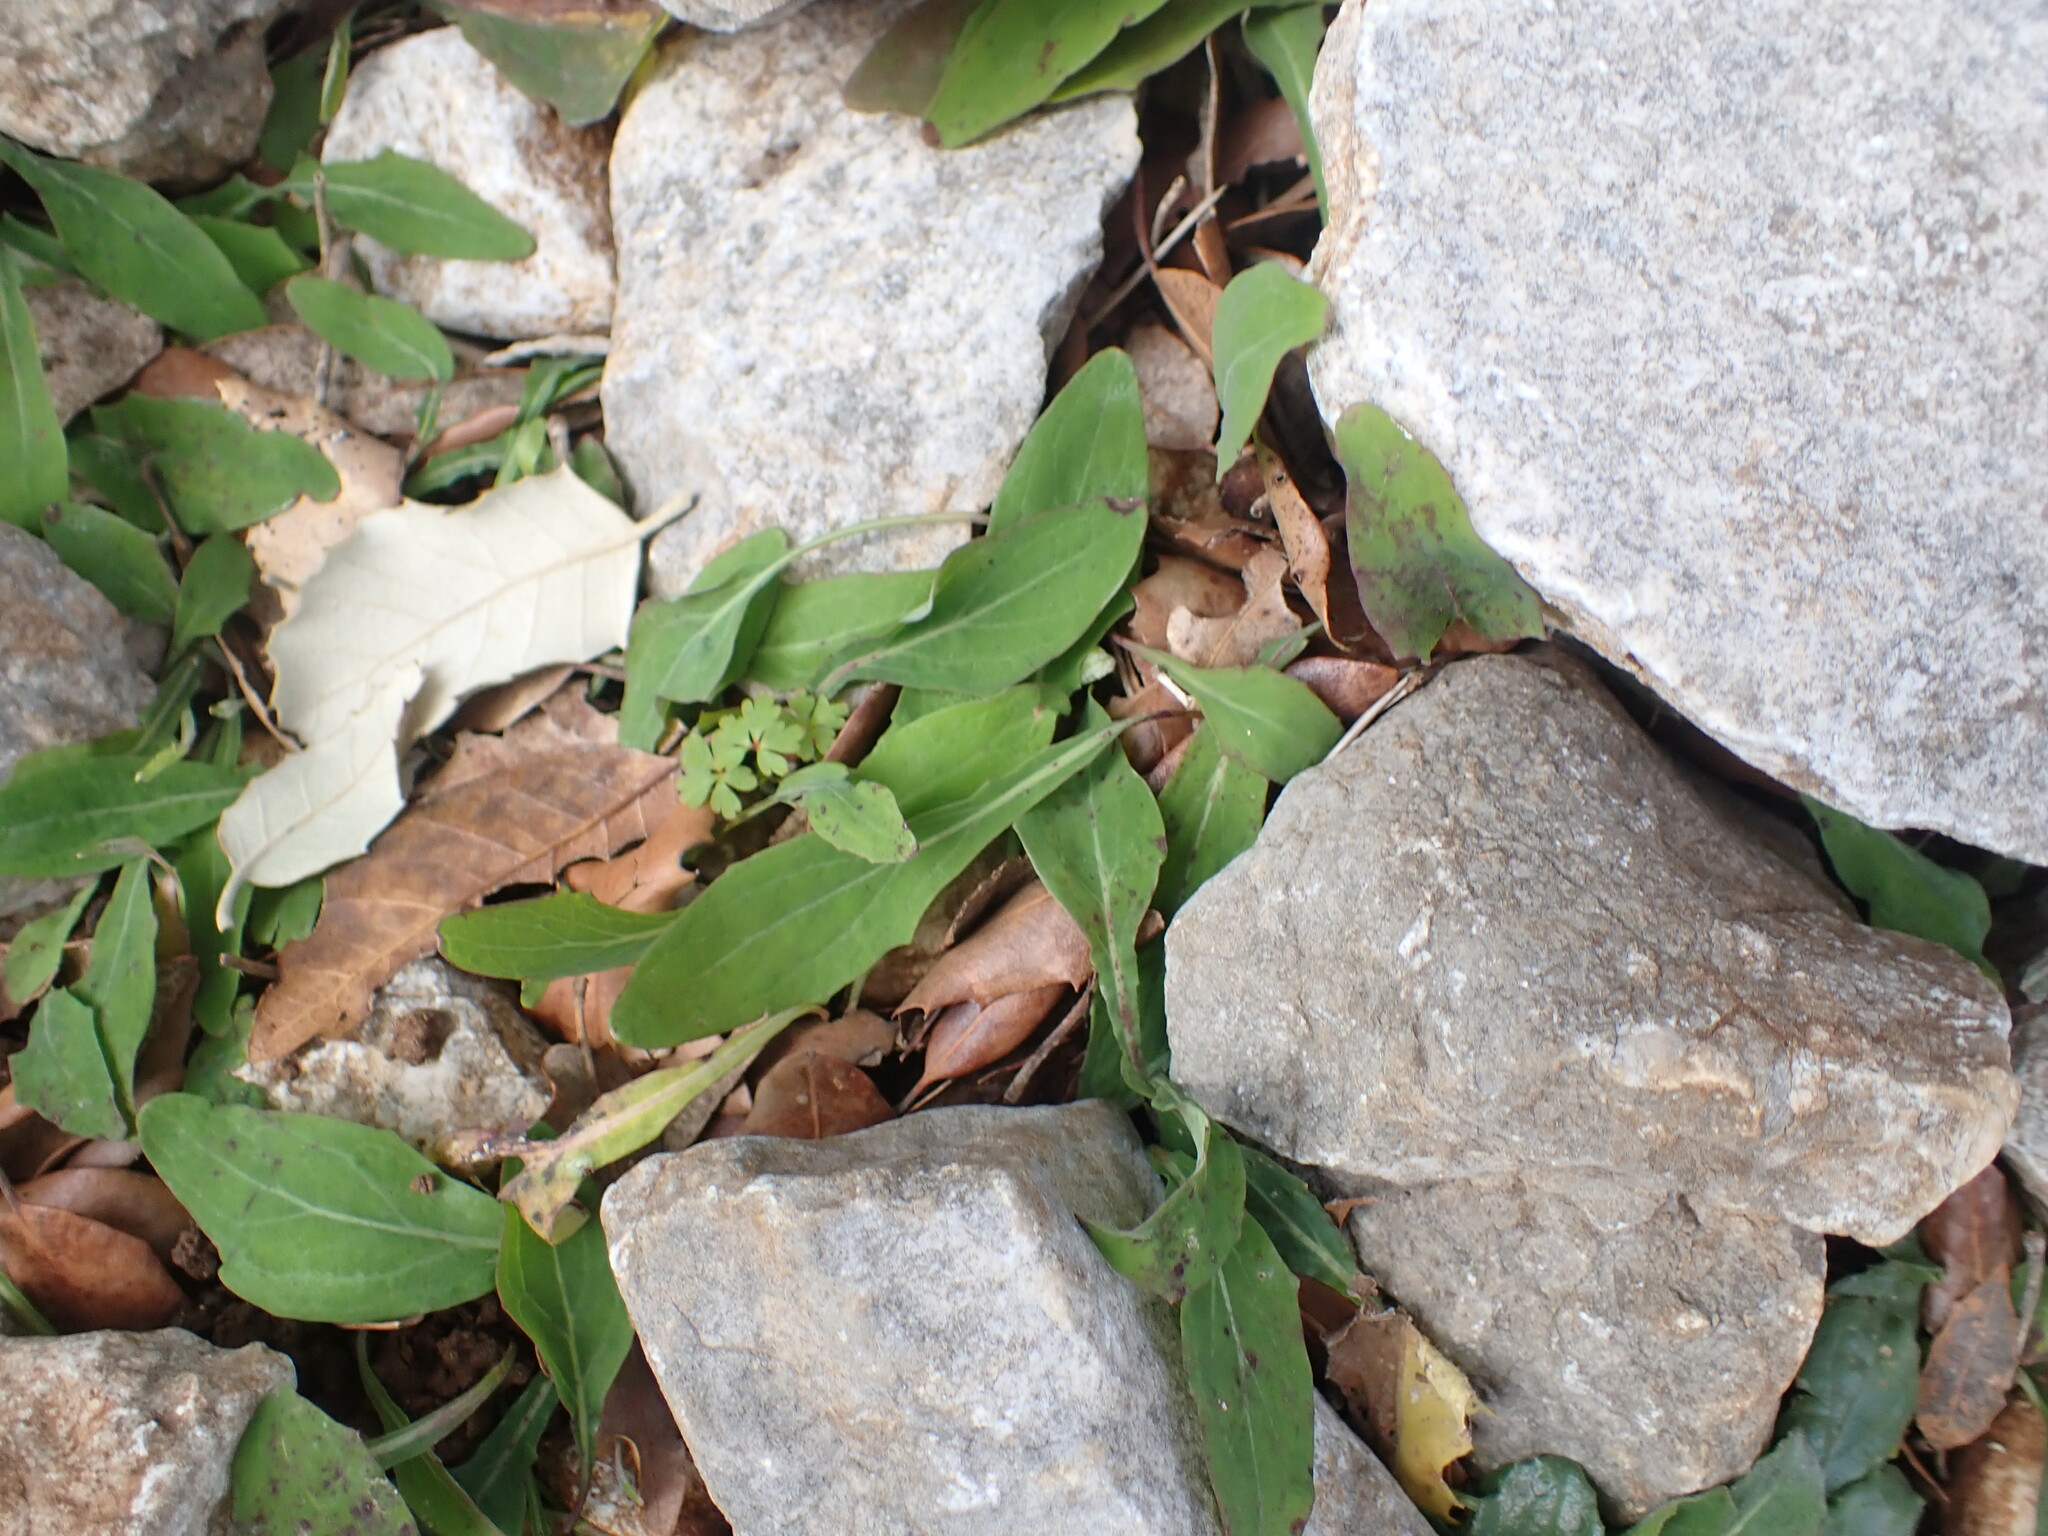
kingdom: Plantae
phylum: Tracheophyta
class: Magnoliopsida
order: Asterales
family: Asteraceae
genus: Aetheorhiza
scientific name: Aetheorhiza bulbosa
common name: Tuberous hawk's-beard
